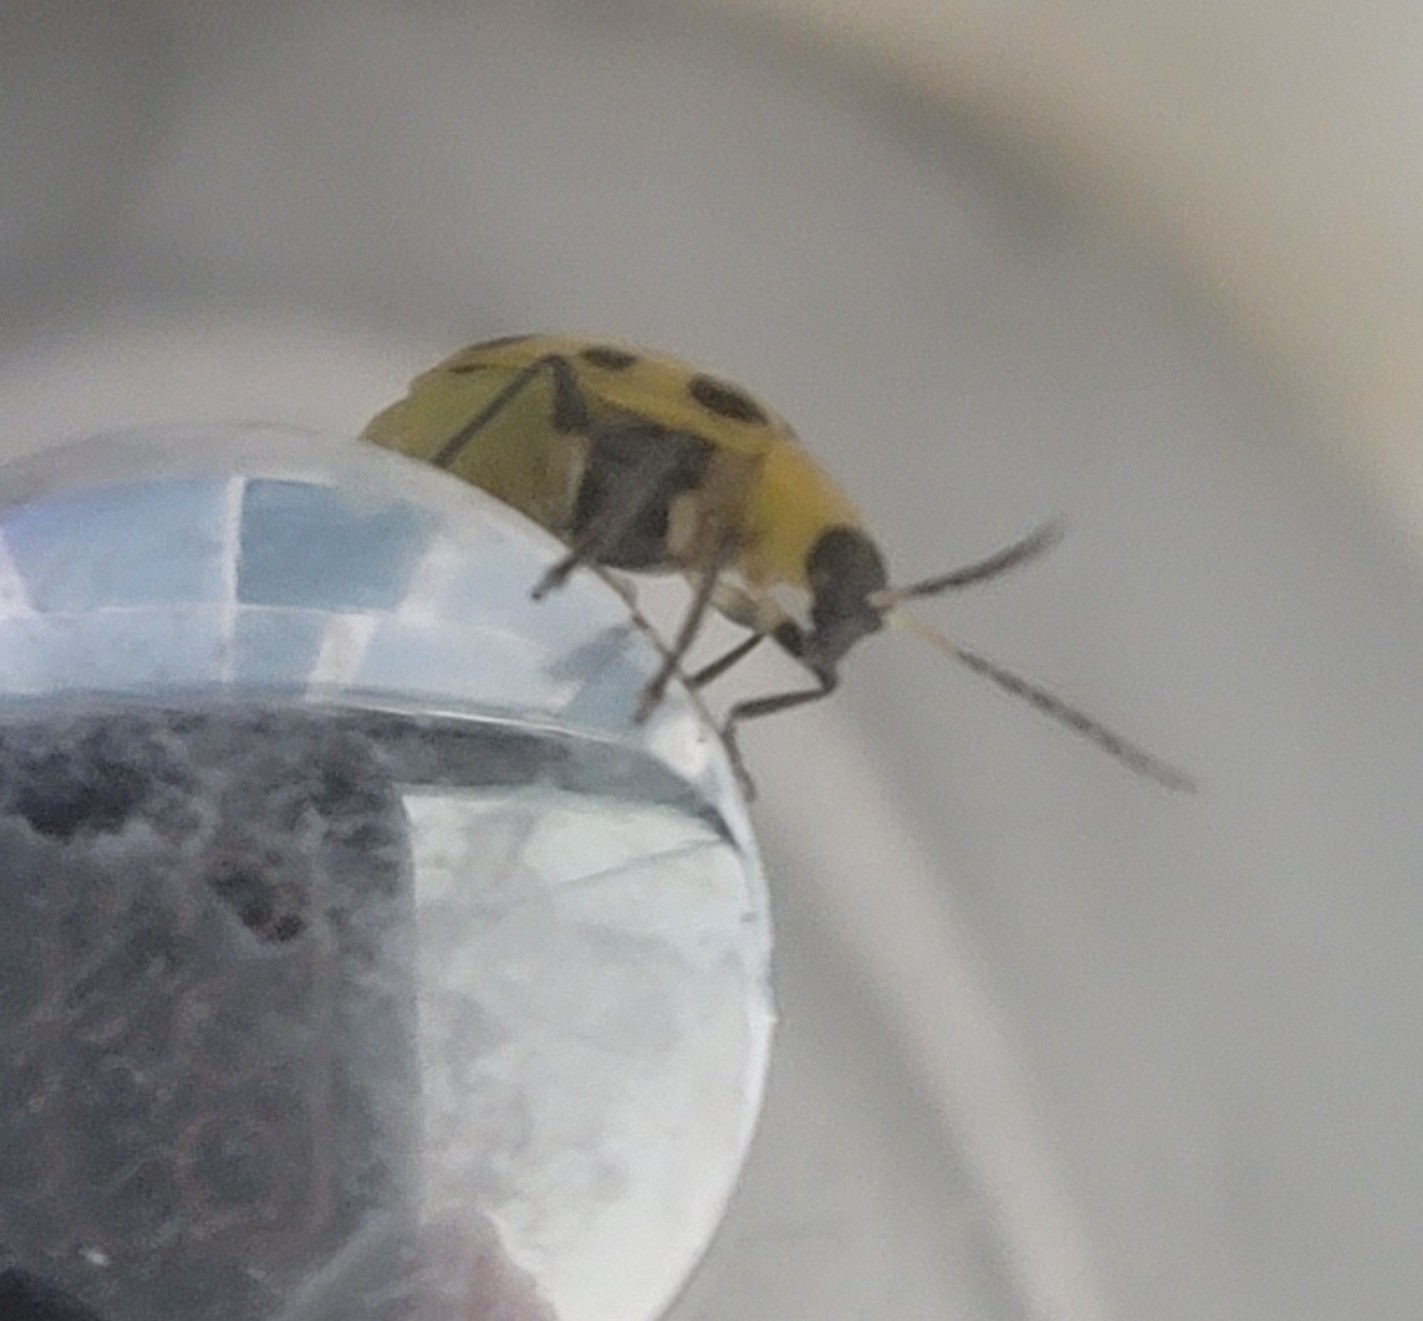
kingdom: Animalia
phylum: Arthropoda
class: Insecta
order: Coleoptera
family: Chrysomelidae
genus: Diabrotica
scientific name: Diabrotica undecimpunctata
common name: Spotted cucumber beetle
